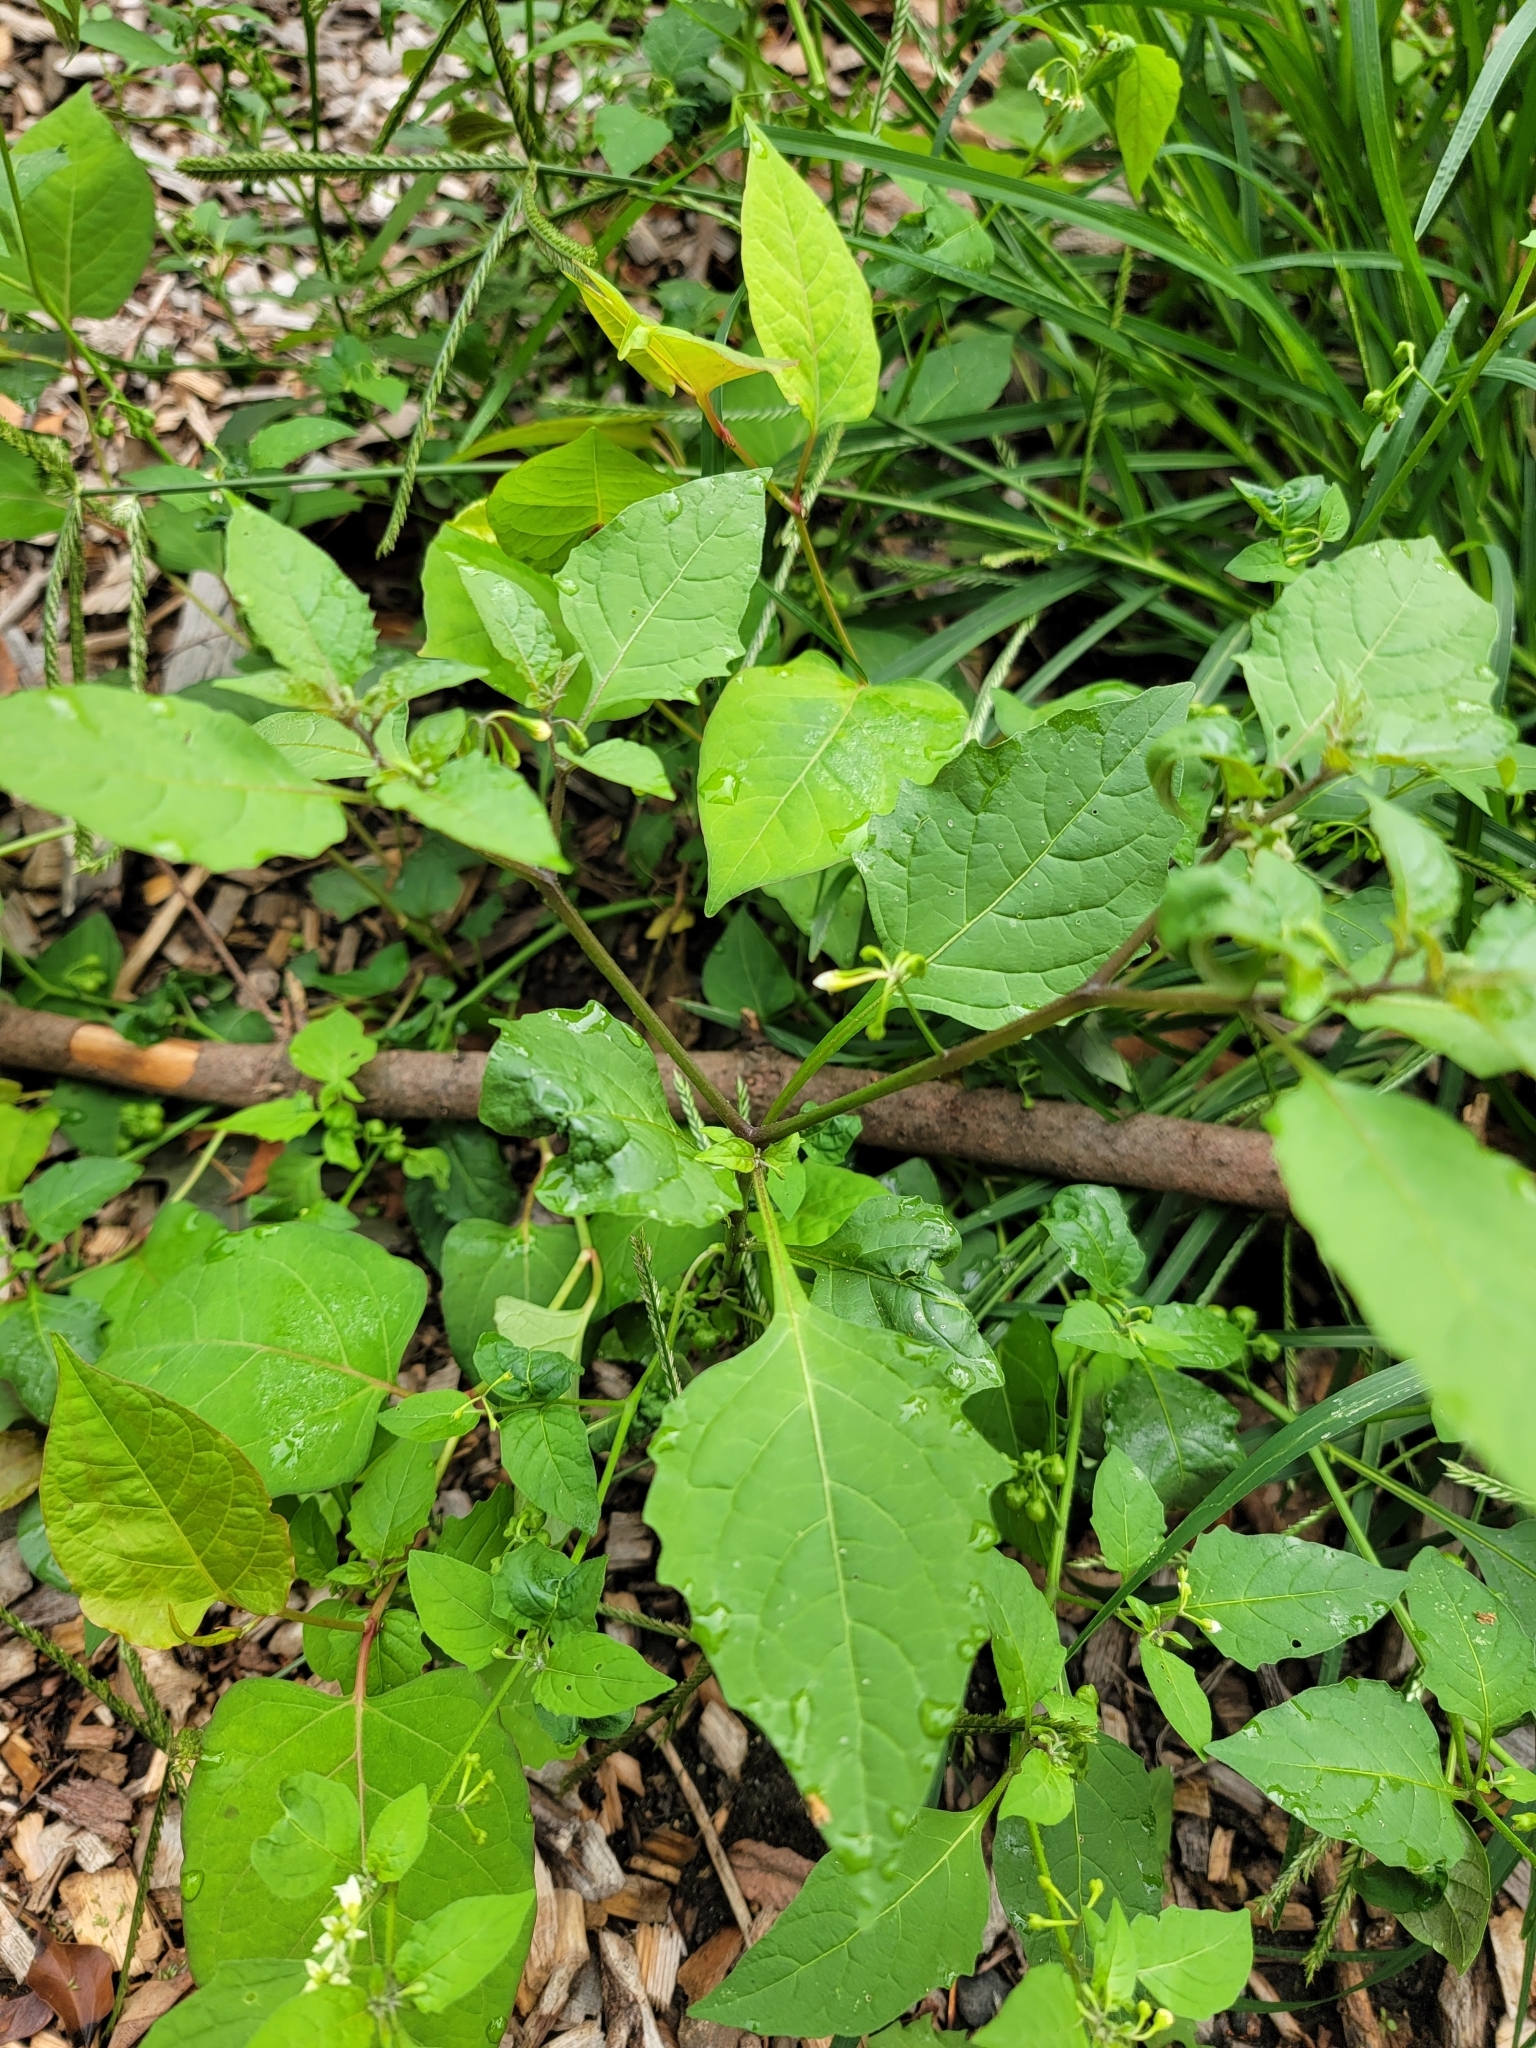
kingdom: Plantae
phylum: Tracheophyta
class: Magnoliopsida
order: Solanales
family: Solanaceae
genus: Solanum
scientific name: Solanum emulans
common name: Eastern black nightshade
